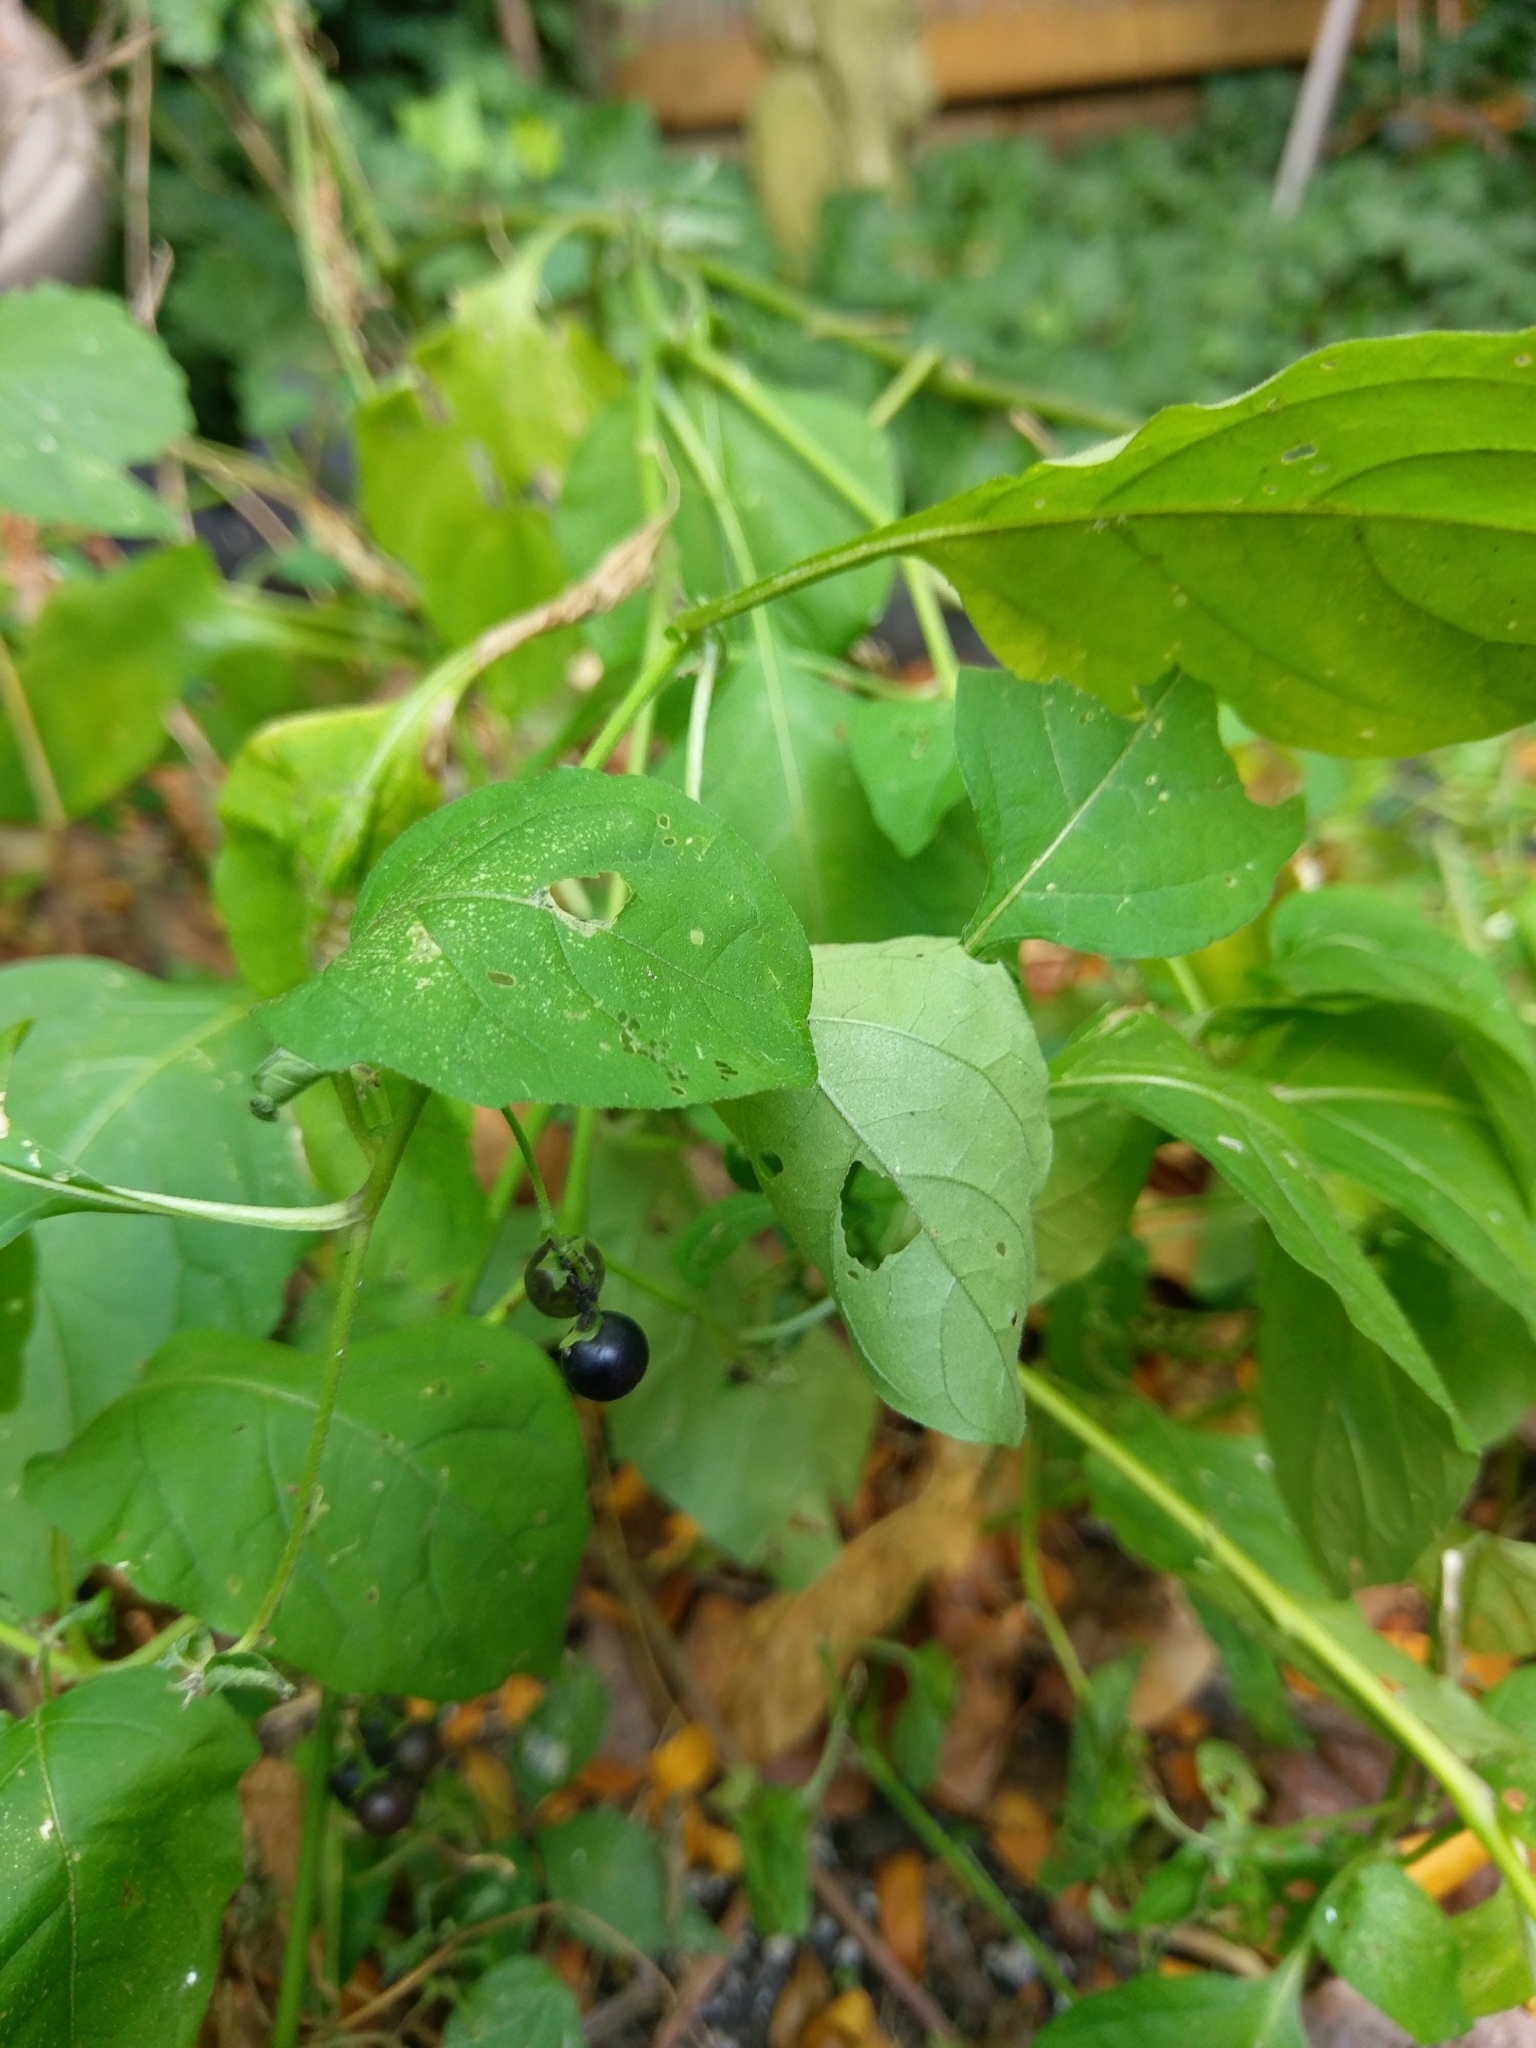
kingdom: Plantae
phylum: Tracheophyta
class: Magnoliopsida
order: Solanales
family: Solanaceae
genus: Solanum
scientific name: Solanum emulans
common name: Eastern black nightshade
